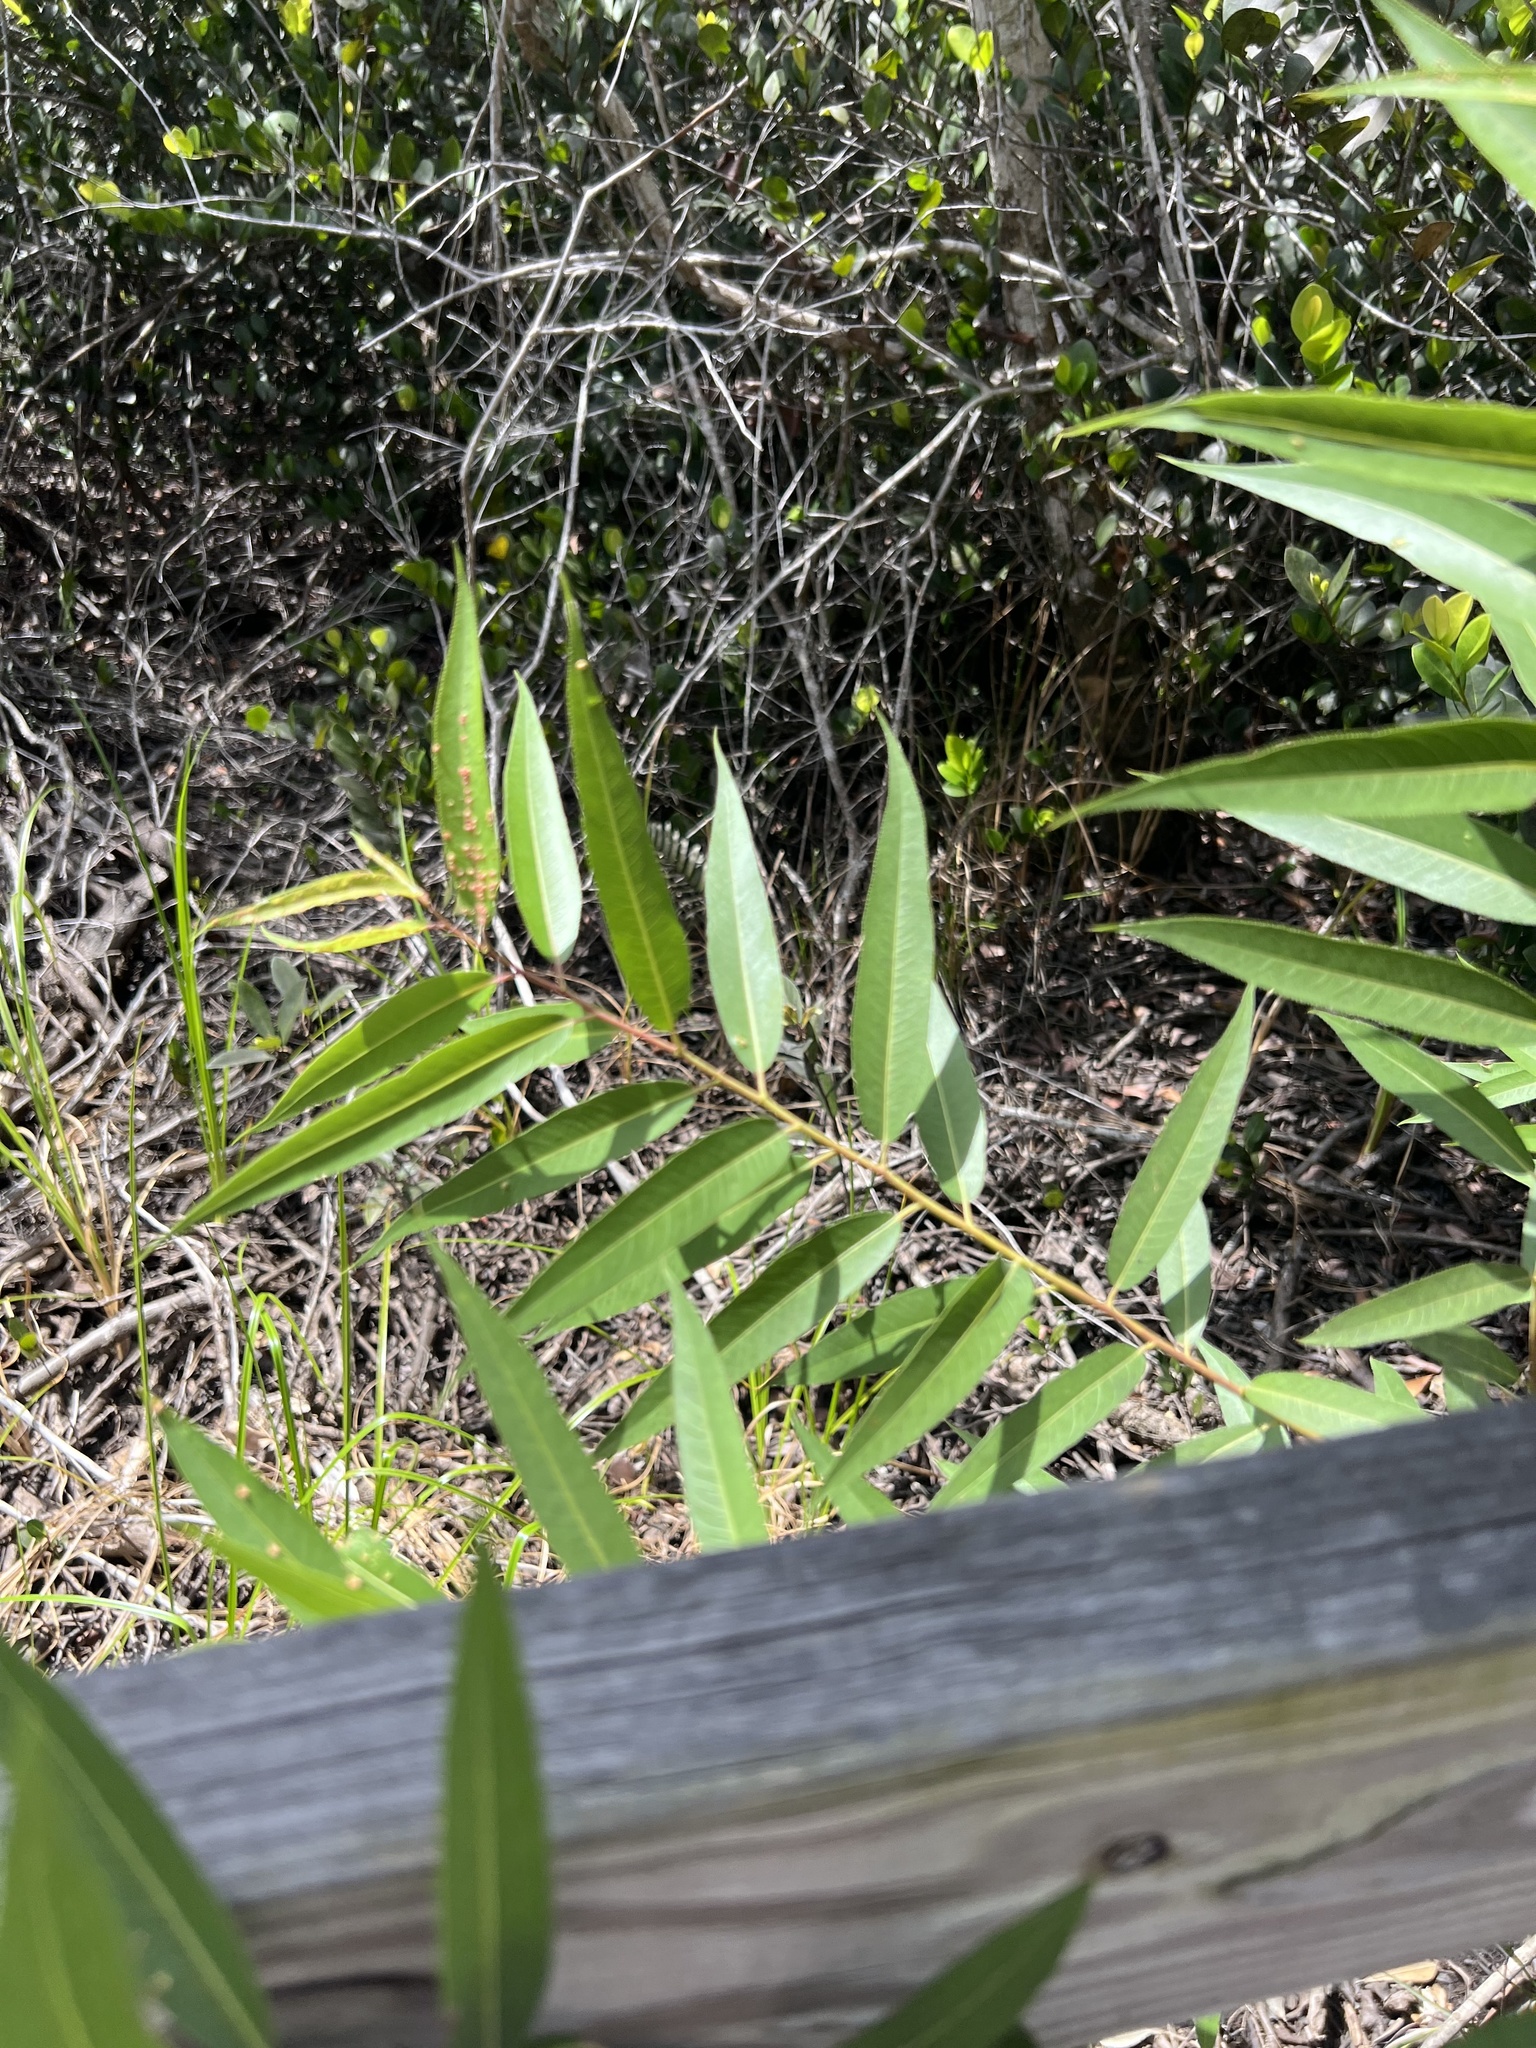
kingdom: Plantae
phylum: Tracheophyta
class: Magnoliopsida
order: Malpighiales
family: Salicaceae
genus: Salix
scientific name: Salix caroliniana
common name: Carolina willow
